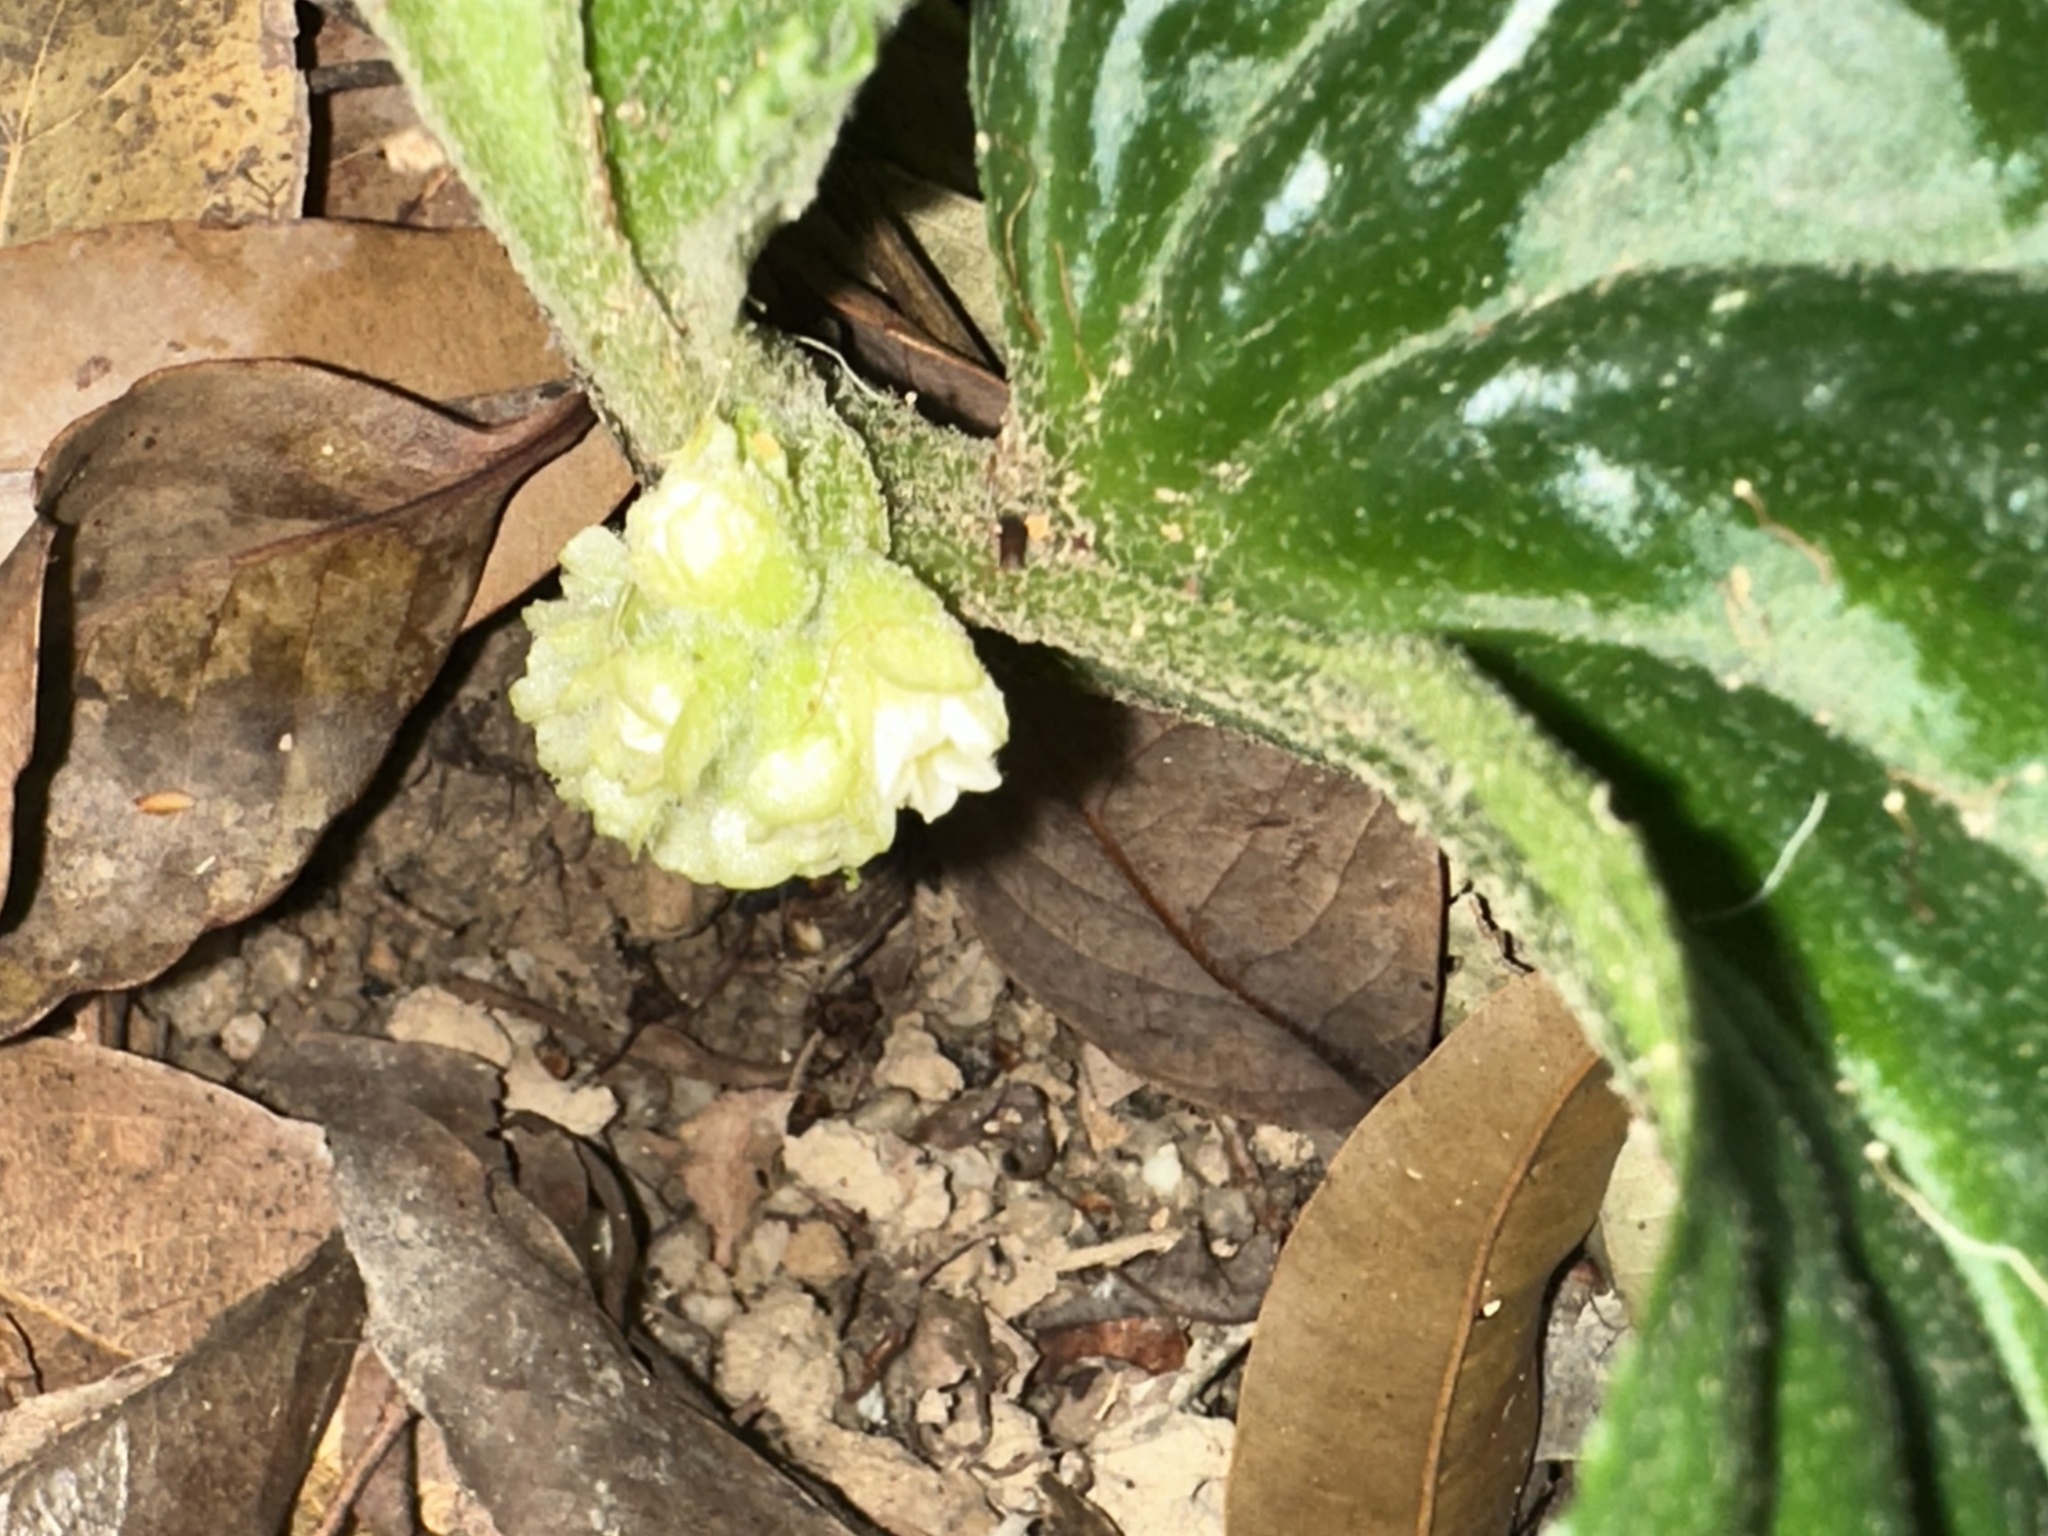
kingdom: Plantae
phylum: Tracheophyta
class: Magnoliopsida
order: Asterales
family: Pentaphragmataceae
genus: Pentaphragma
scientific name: Pentaphragma begoniifolium
